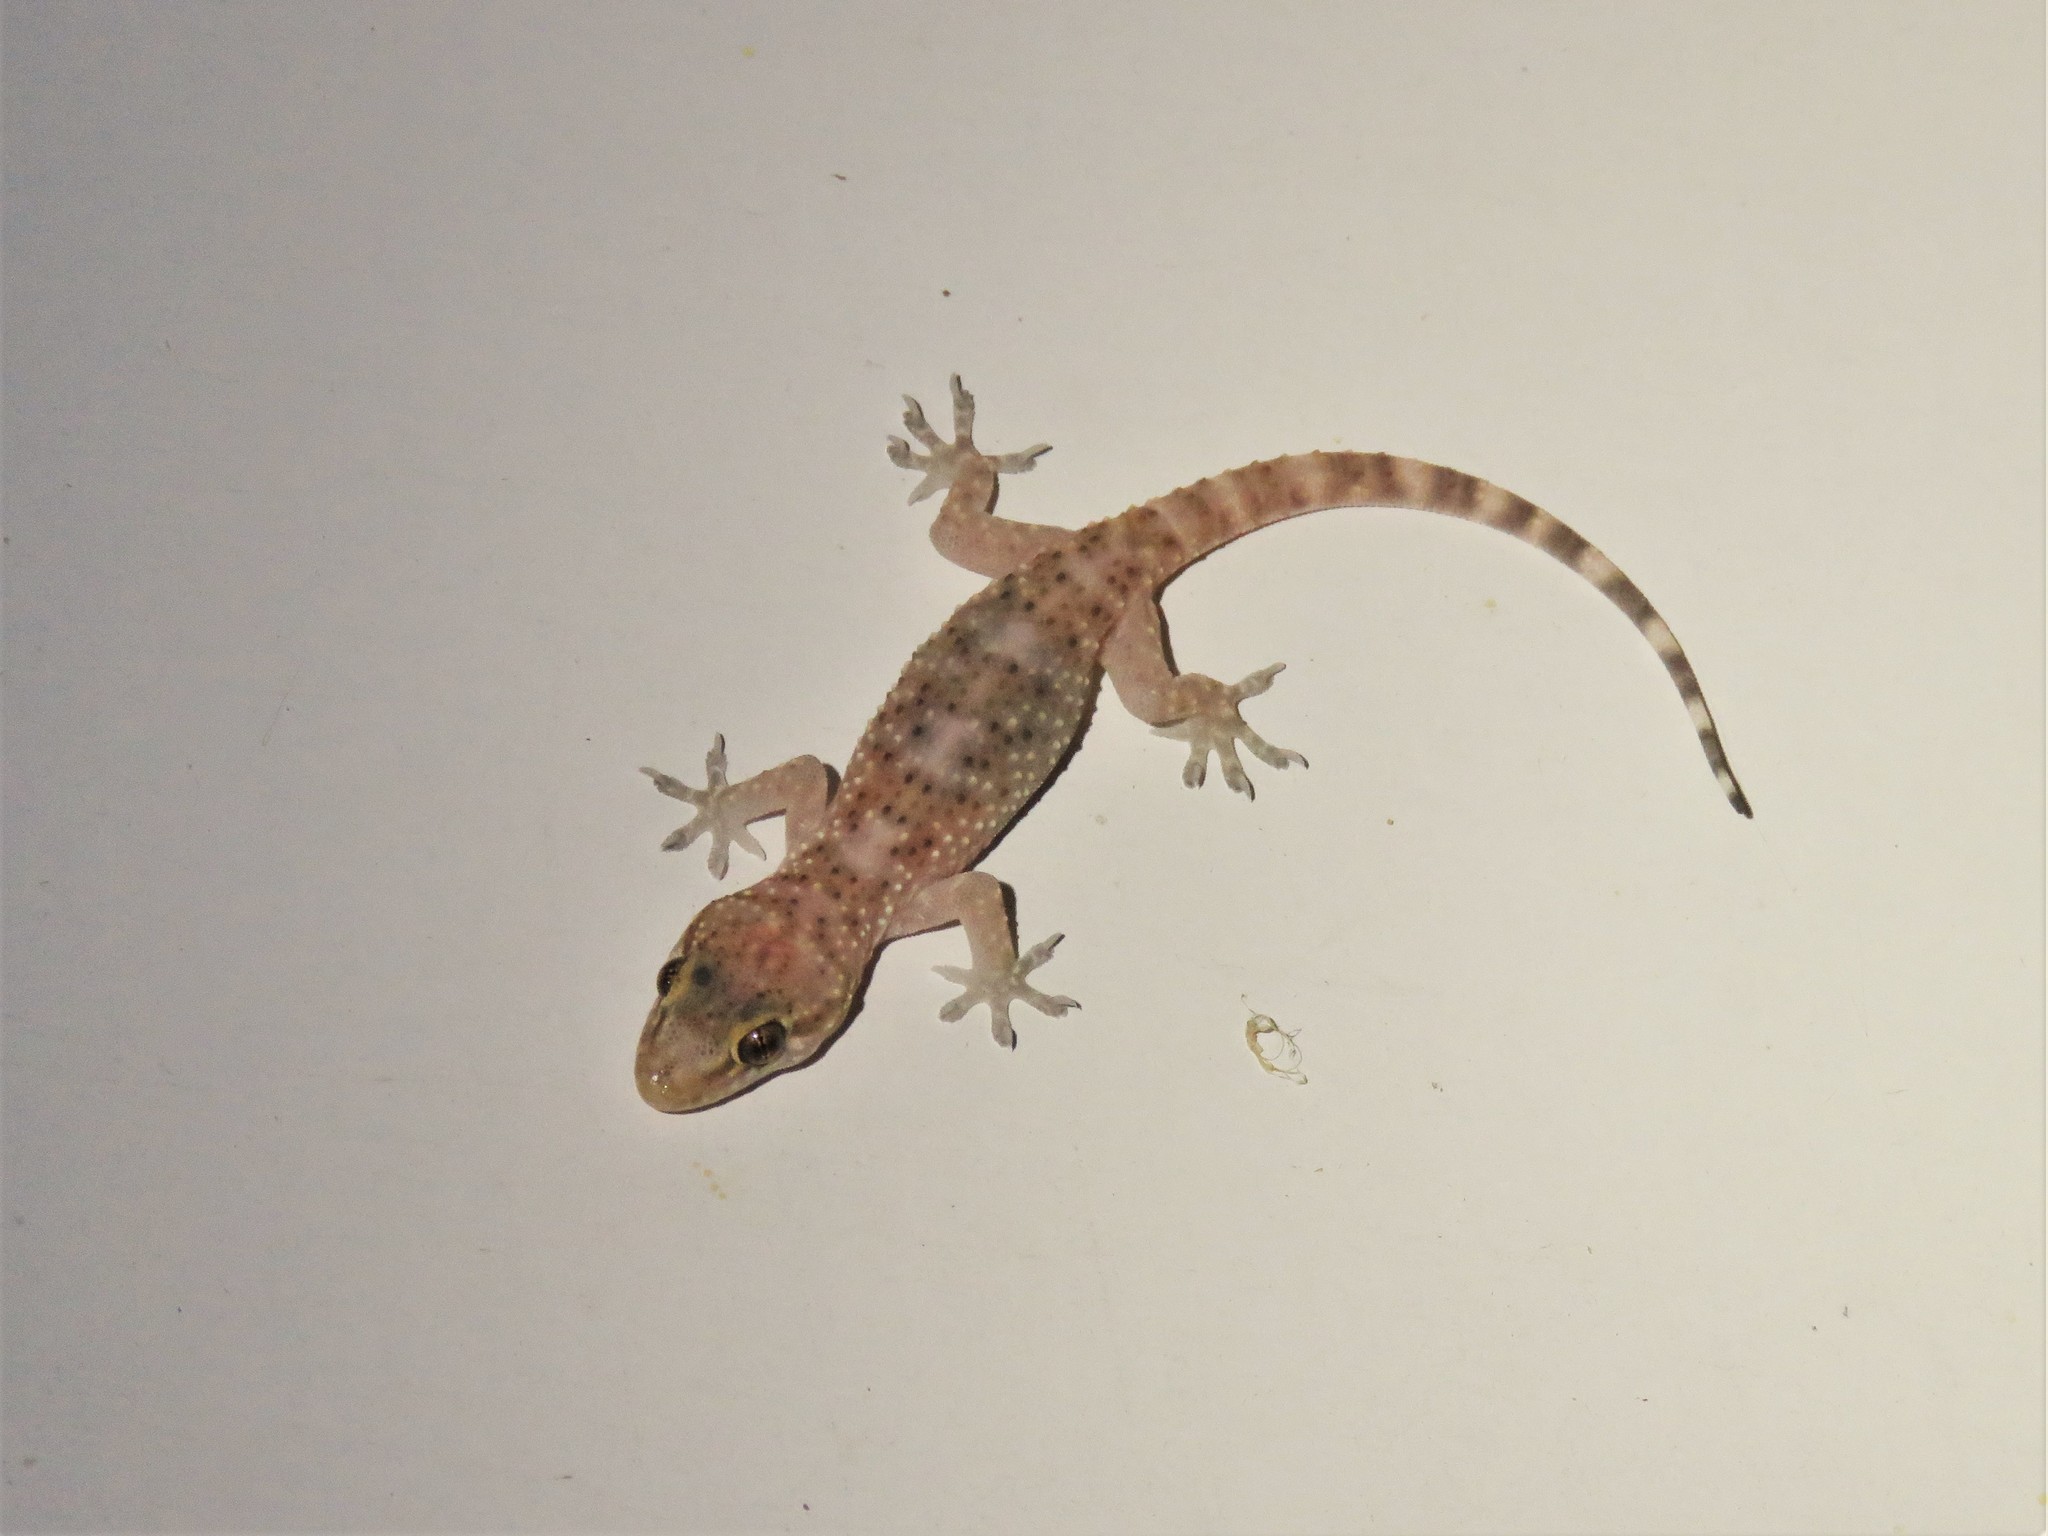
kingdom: Animalia
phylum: Chordata
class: Squamata
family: Gekkonidae
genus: Hemidactylus
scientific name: Hemidactylus turcicus
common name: Turkish gecko
